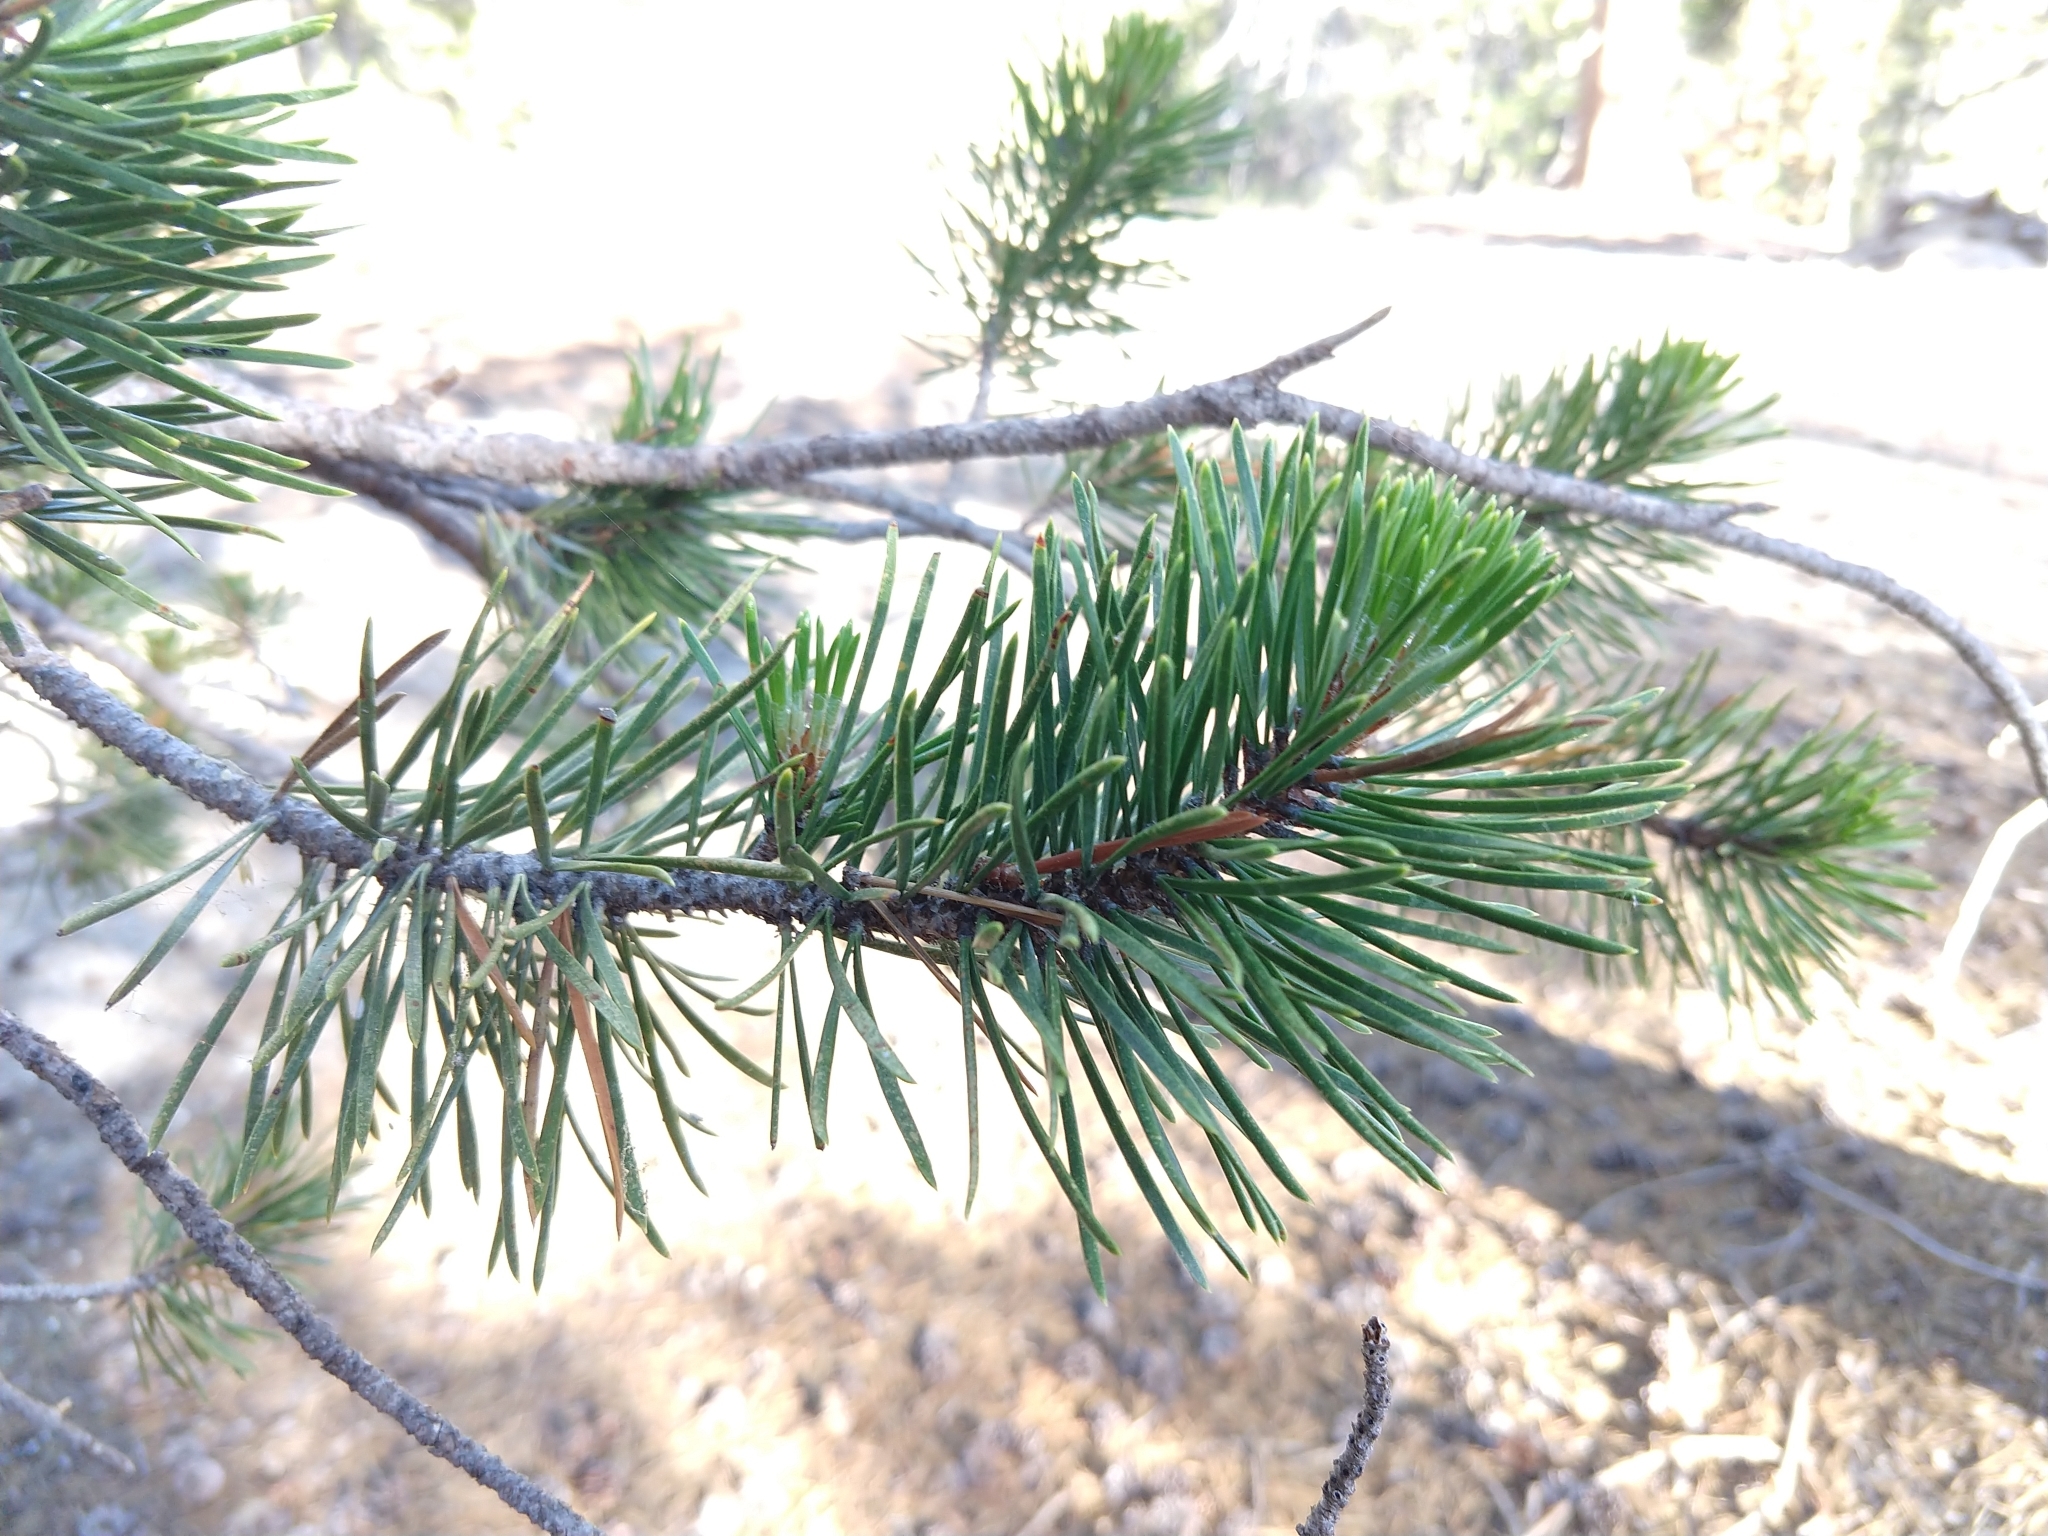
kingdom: Plantae
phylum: Tracheophyta
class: Pinopsida
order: Pinales
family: Pinaceae
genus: Pinus
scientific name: Pinus contorta
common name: Lodgepole pine
